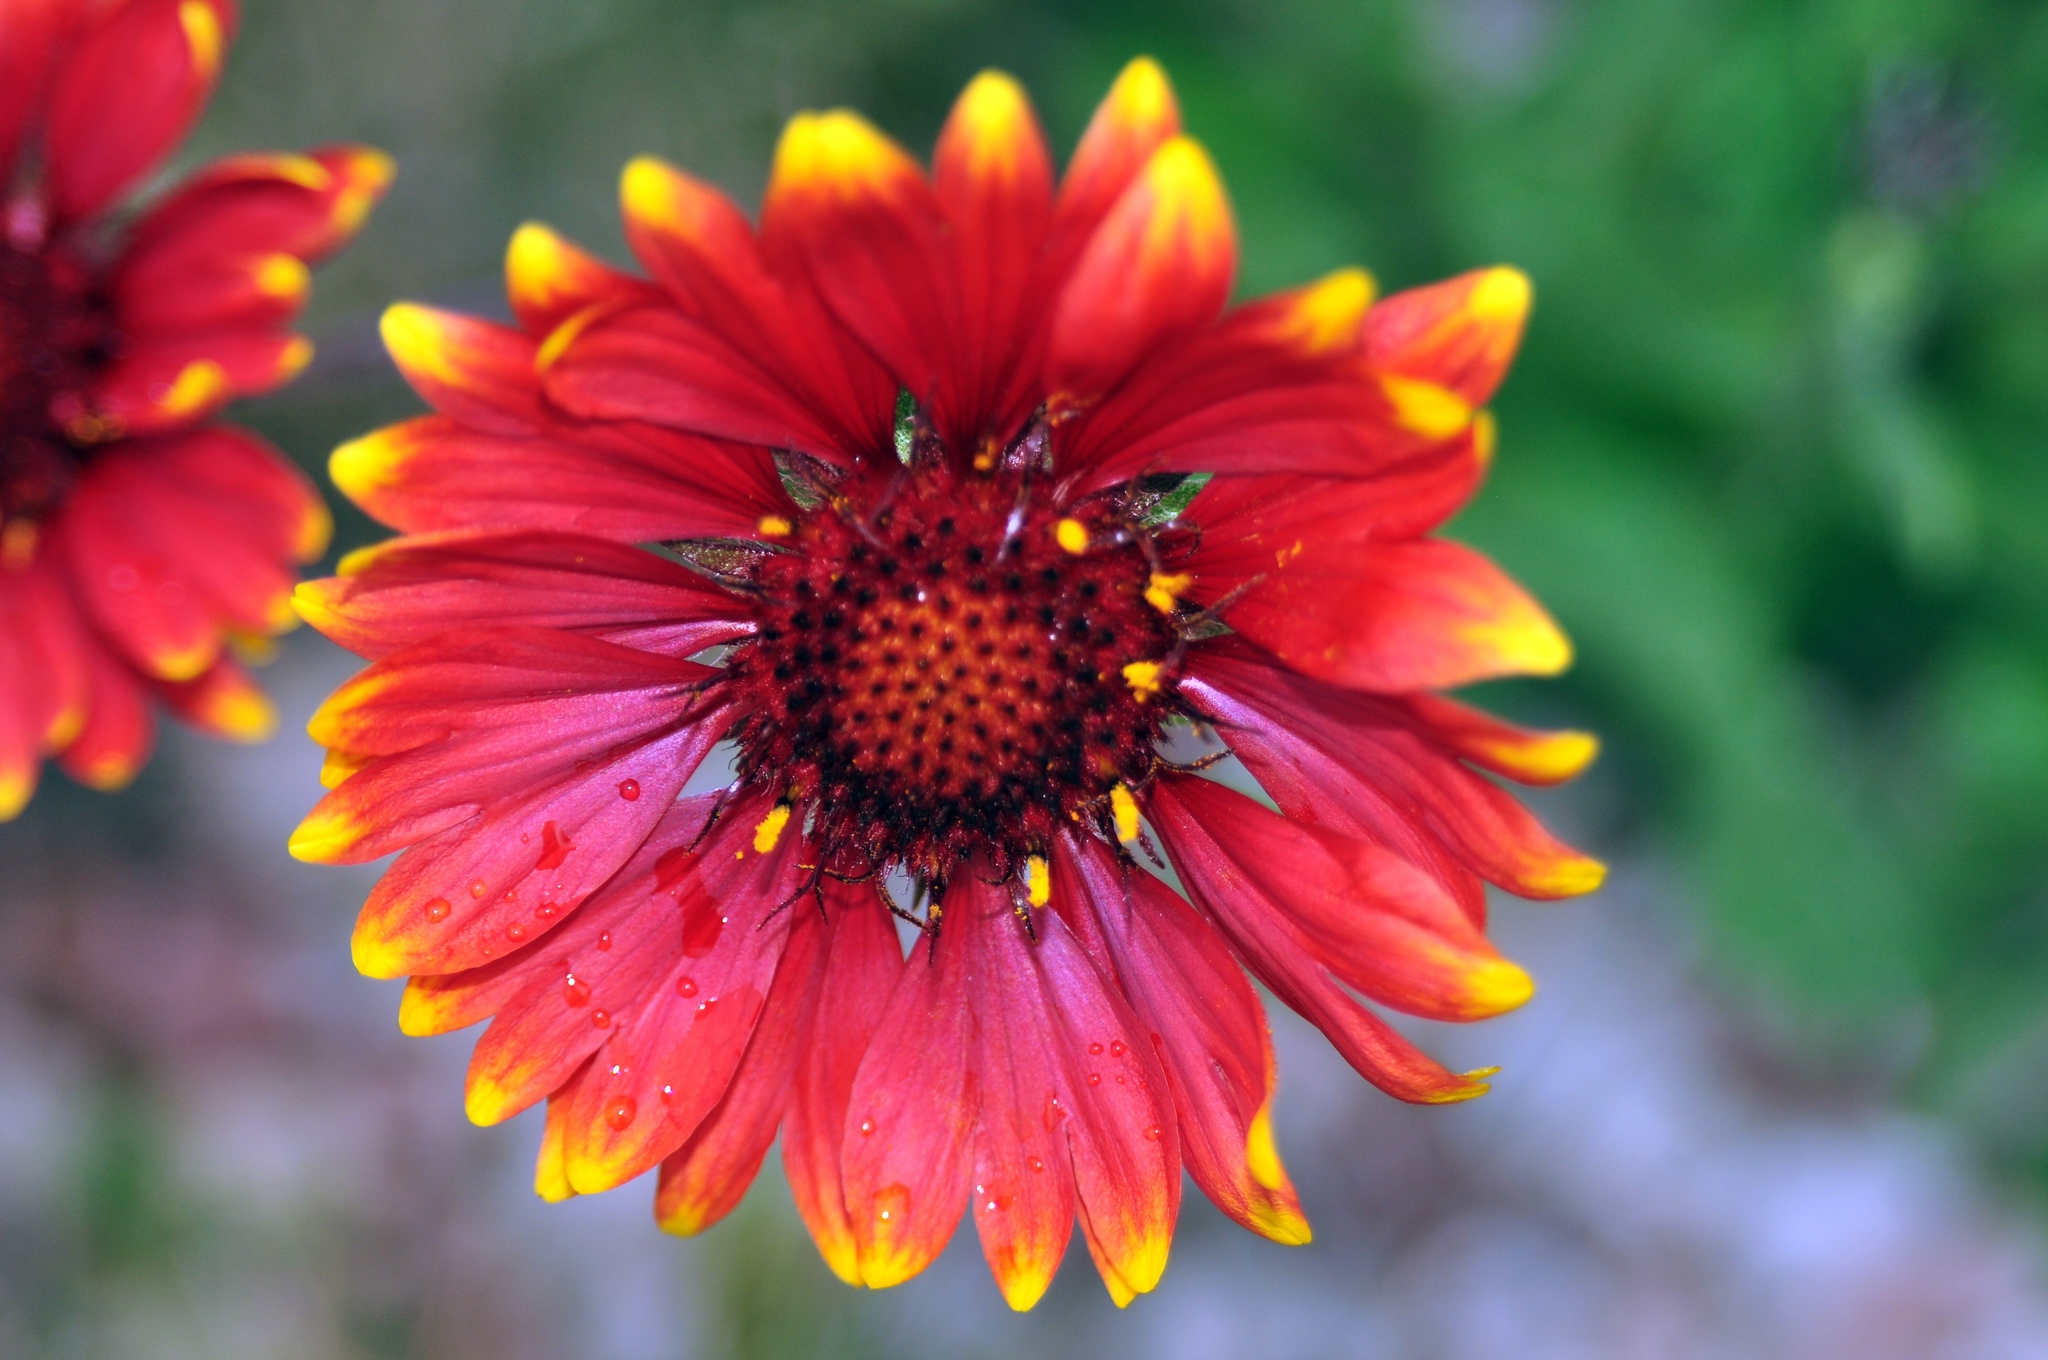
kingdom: Plantae
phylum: Tracheophyta
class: Magnoliopsida
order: Asterales
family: Asteraceae
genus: Gaillardia
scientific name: Gaillardia pulchella
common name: Firewheel
